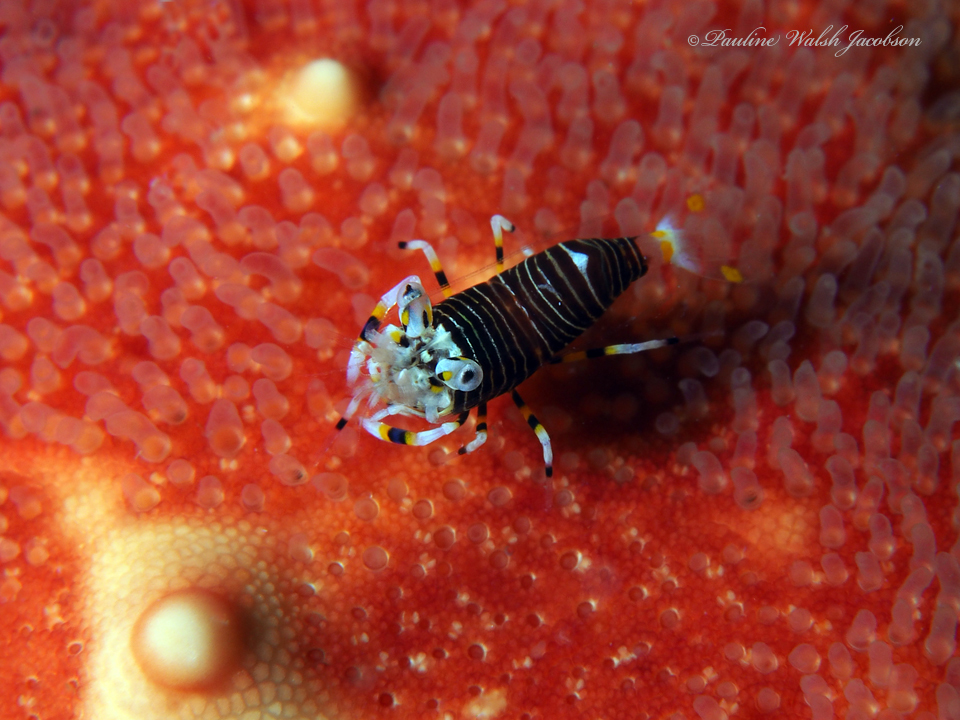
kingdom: Animalia
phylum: Arthropoda
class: Malacostraca
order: Decapoda
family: Palaemonidae
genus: Gnathophyllum
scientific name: Gnathophyllum americanum
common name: Bumblebee shrimp
